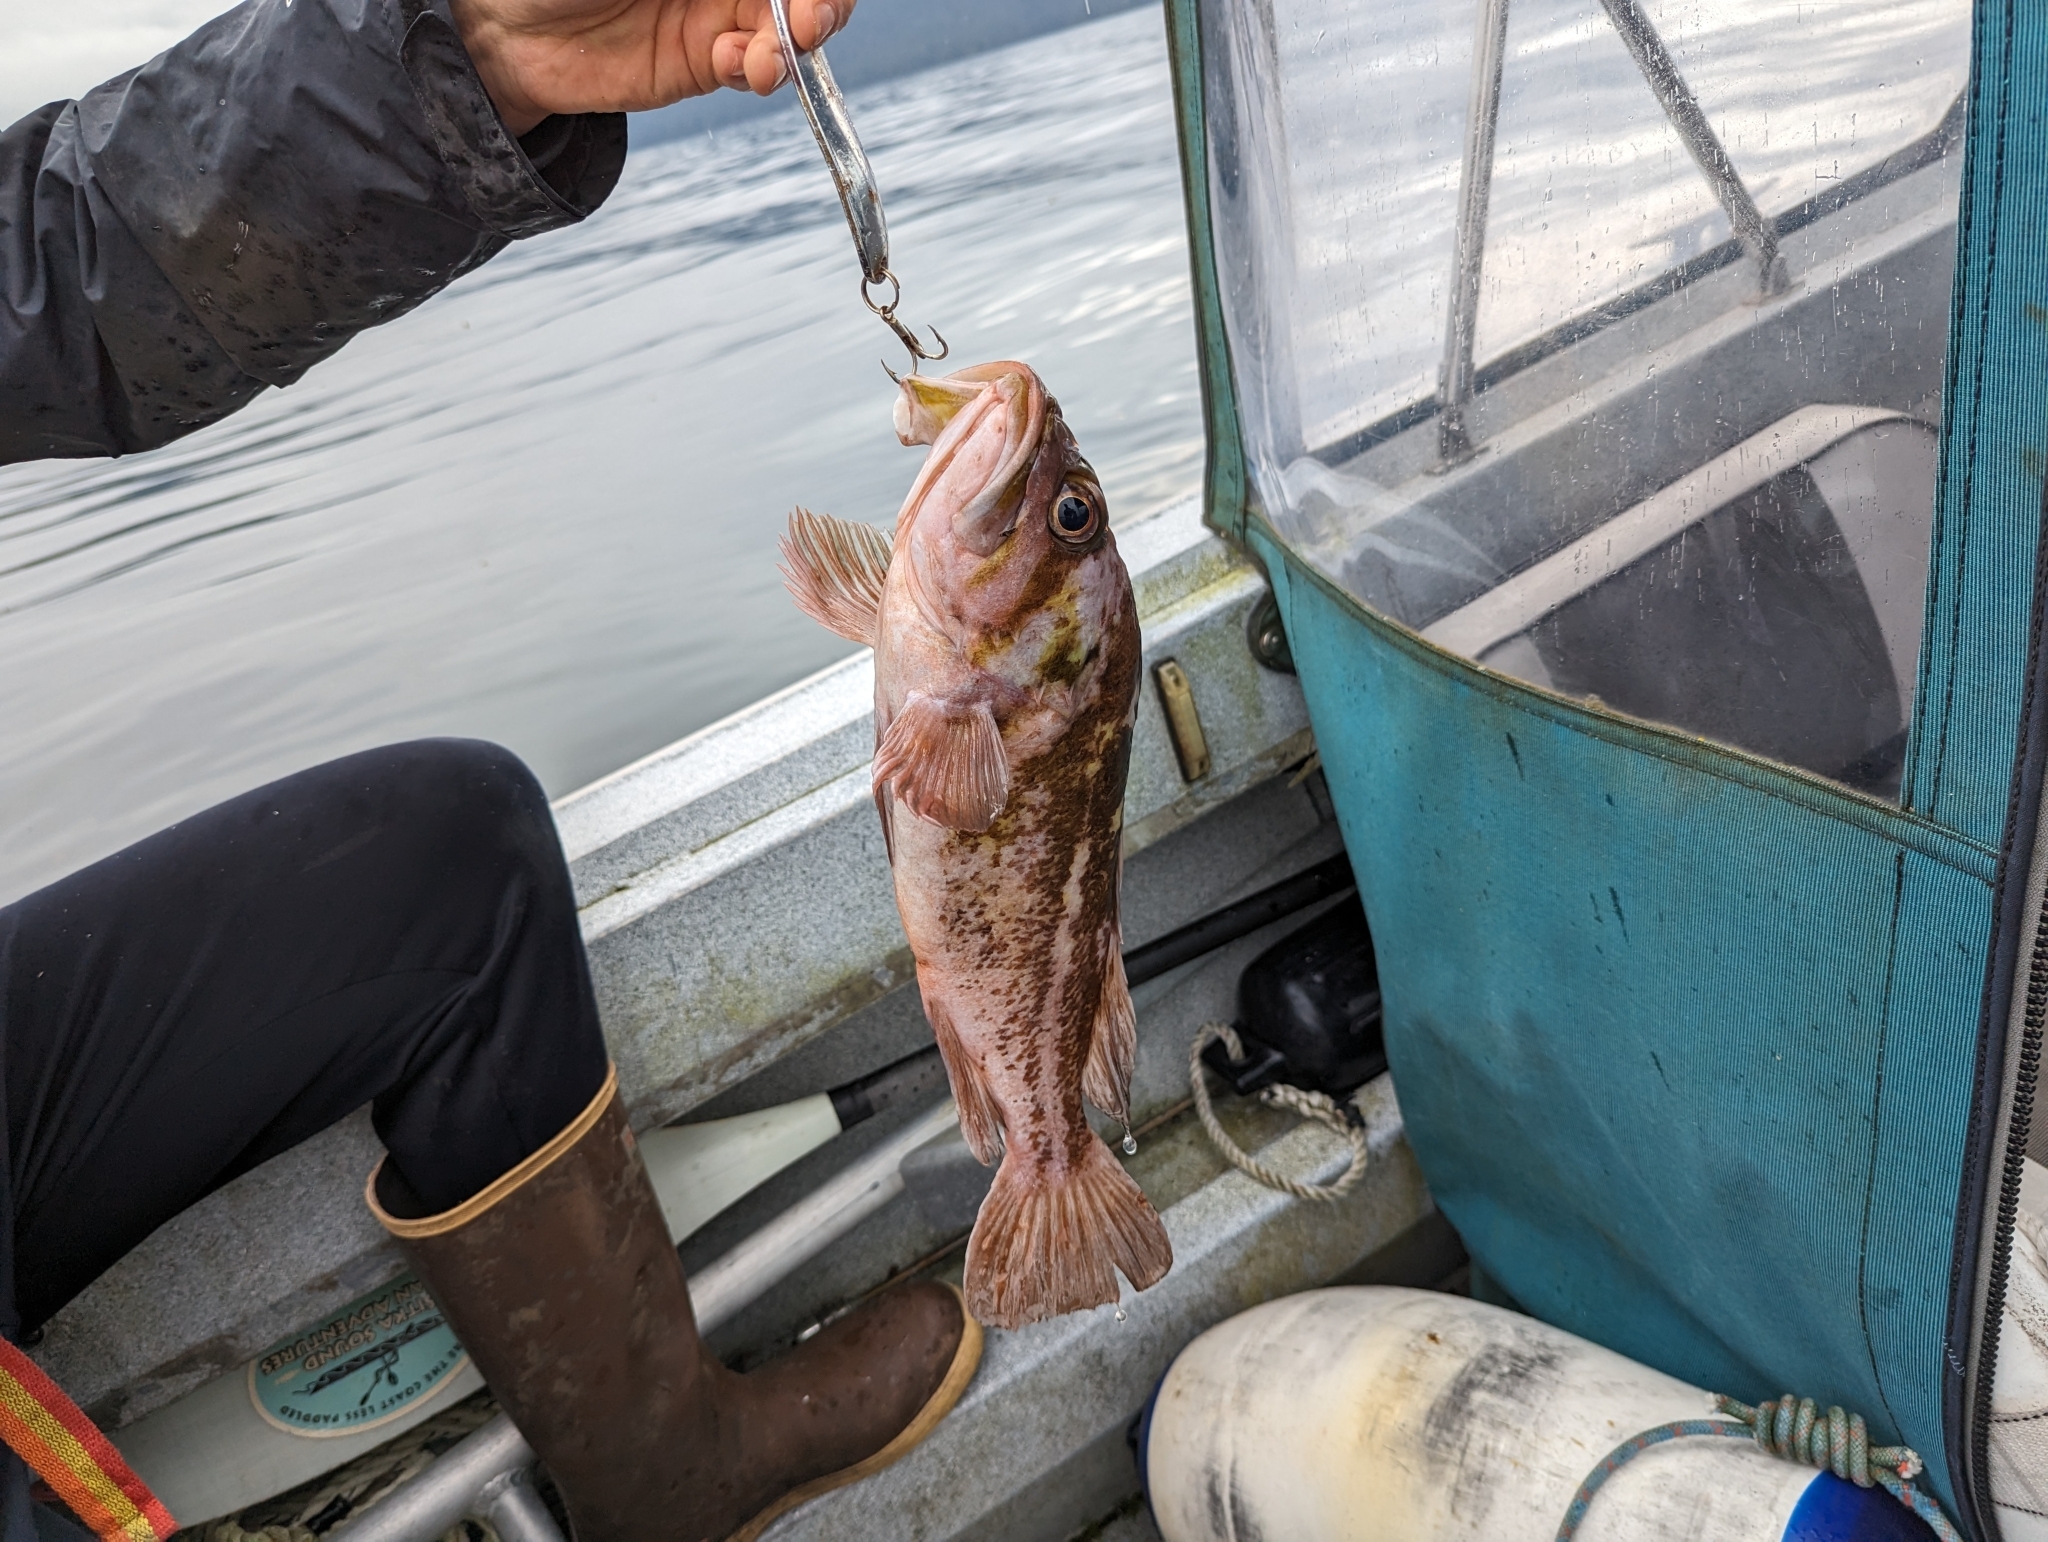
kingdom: Animalia
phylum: Chordata
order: Scorpaeniformes
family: Sebastidae
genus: Sebastes
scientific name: Sebastes caurinus
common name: Copper rockfish
